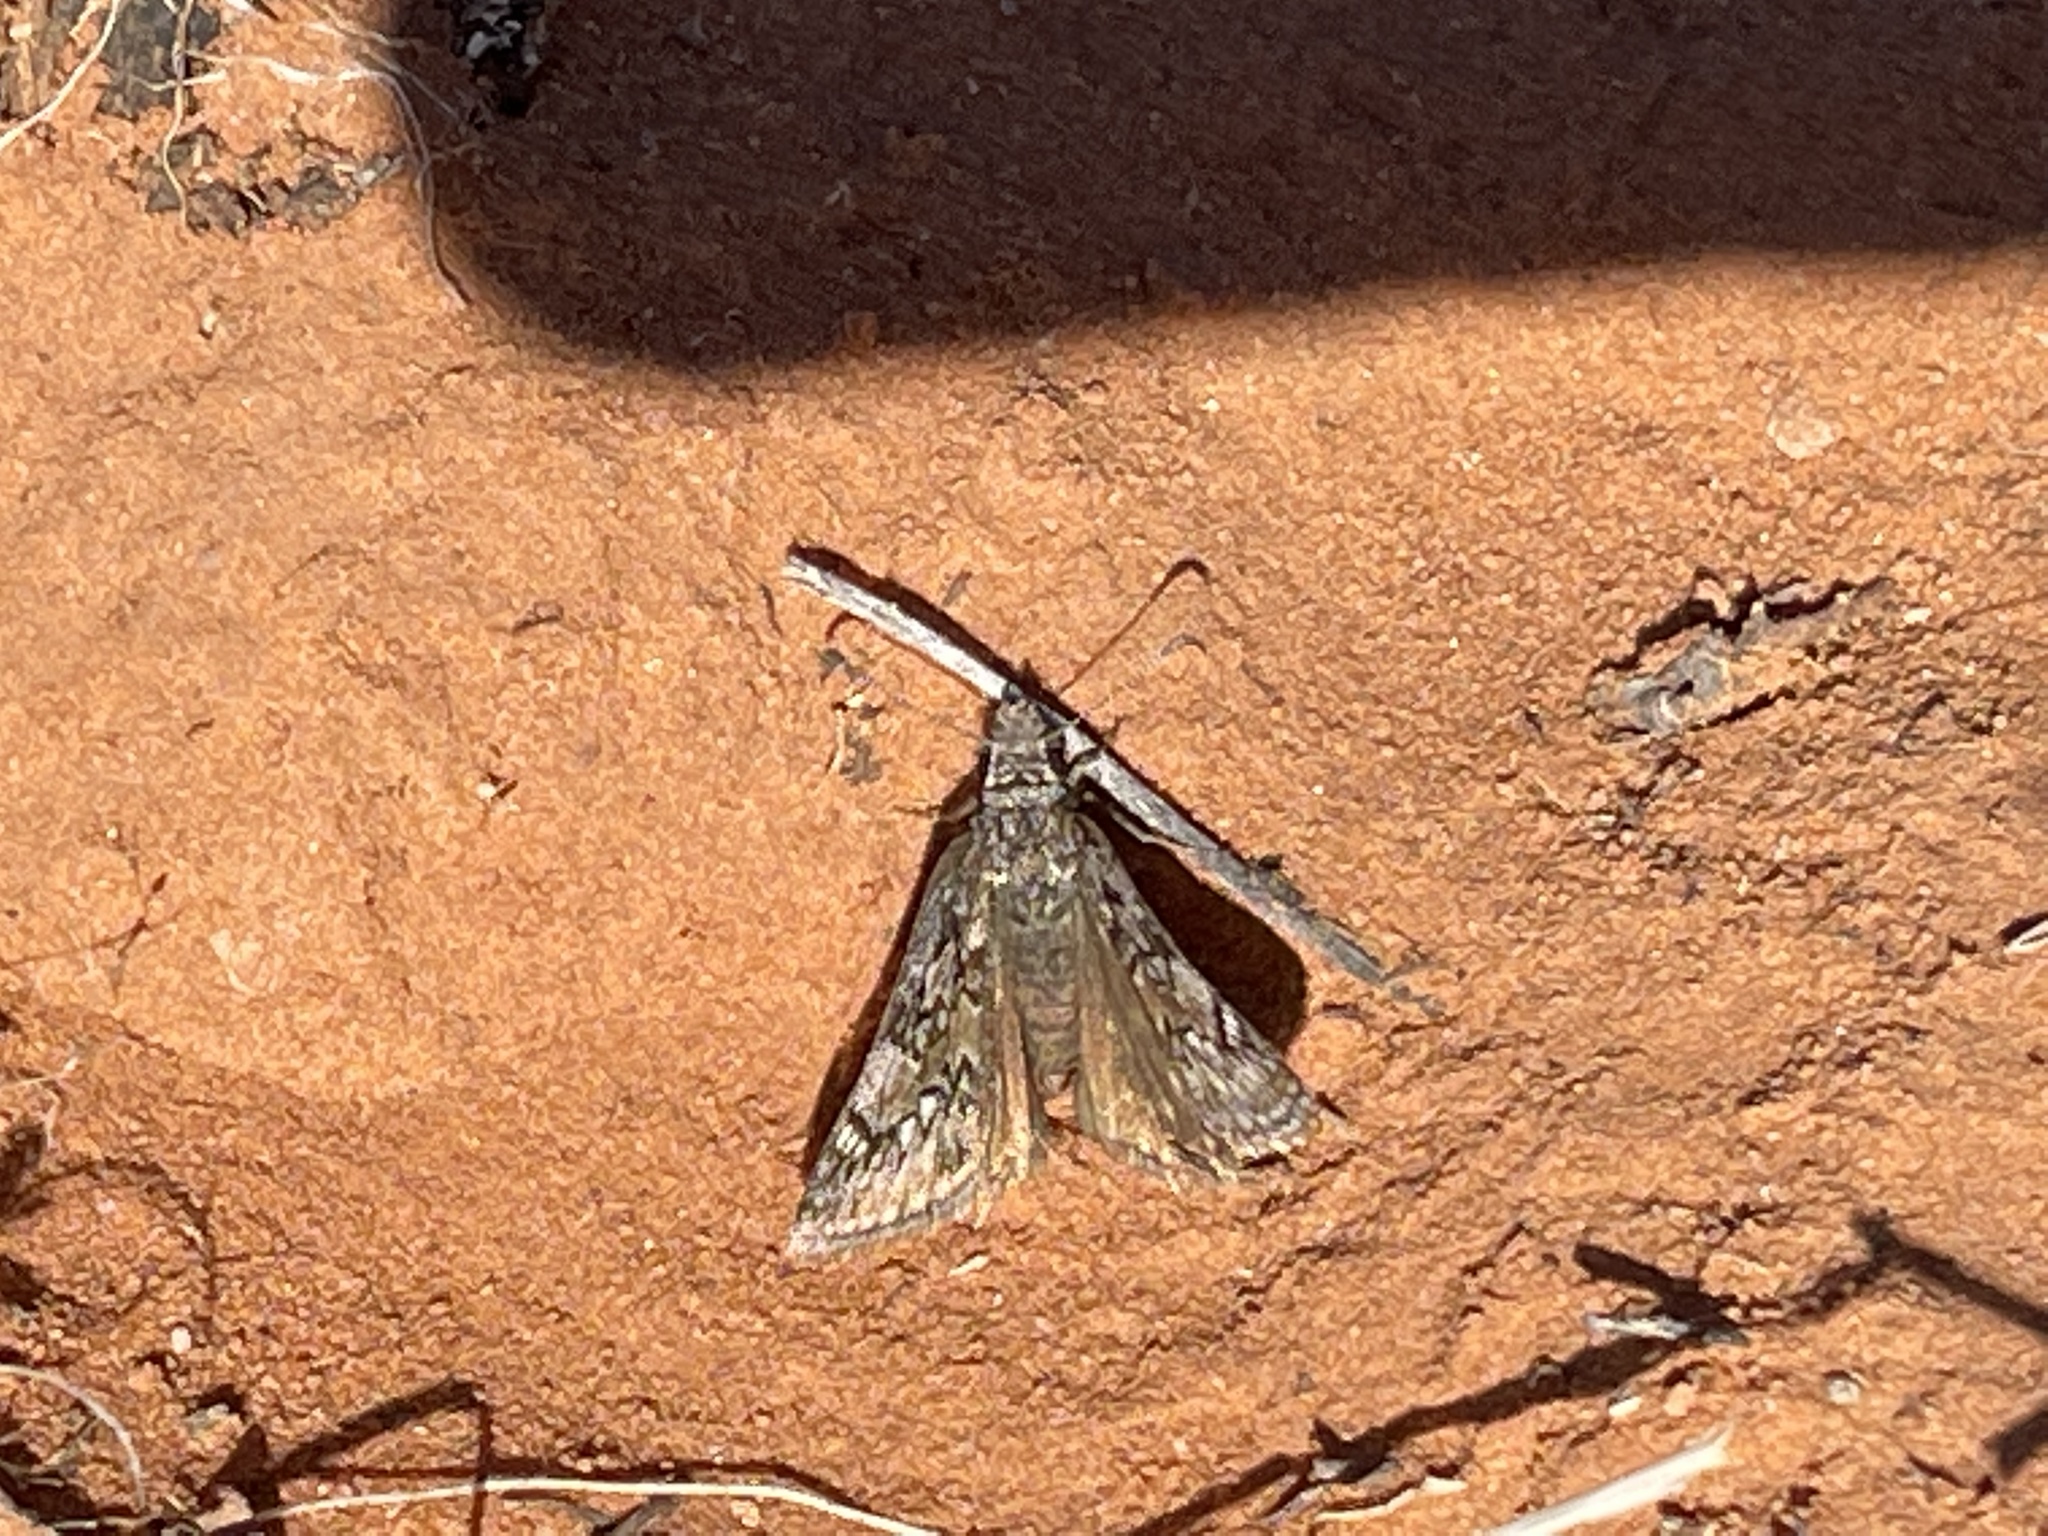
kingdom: Animalia
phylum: Arthropoda
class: Insecta
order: Lepidoptera
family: Hesperiidae
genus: Erynnis
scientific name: Erynnis telemachus
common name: Rocky mountain duskywing
